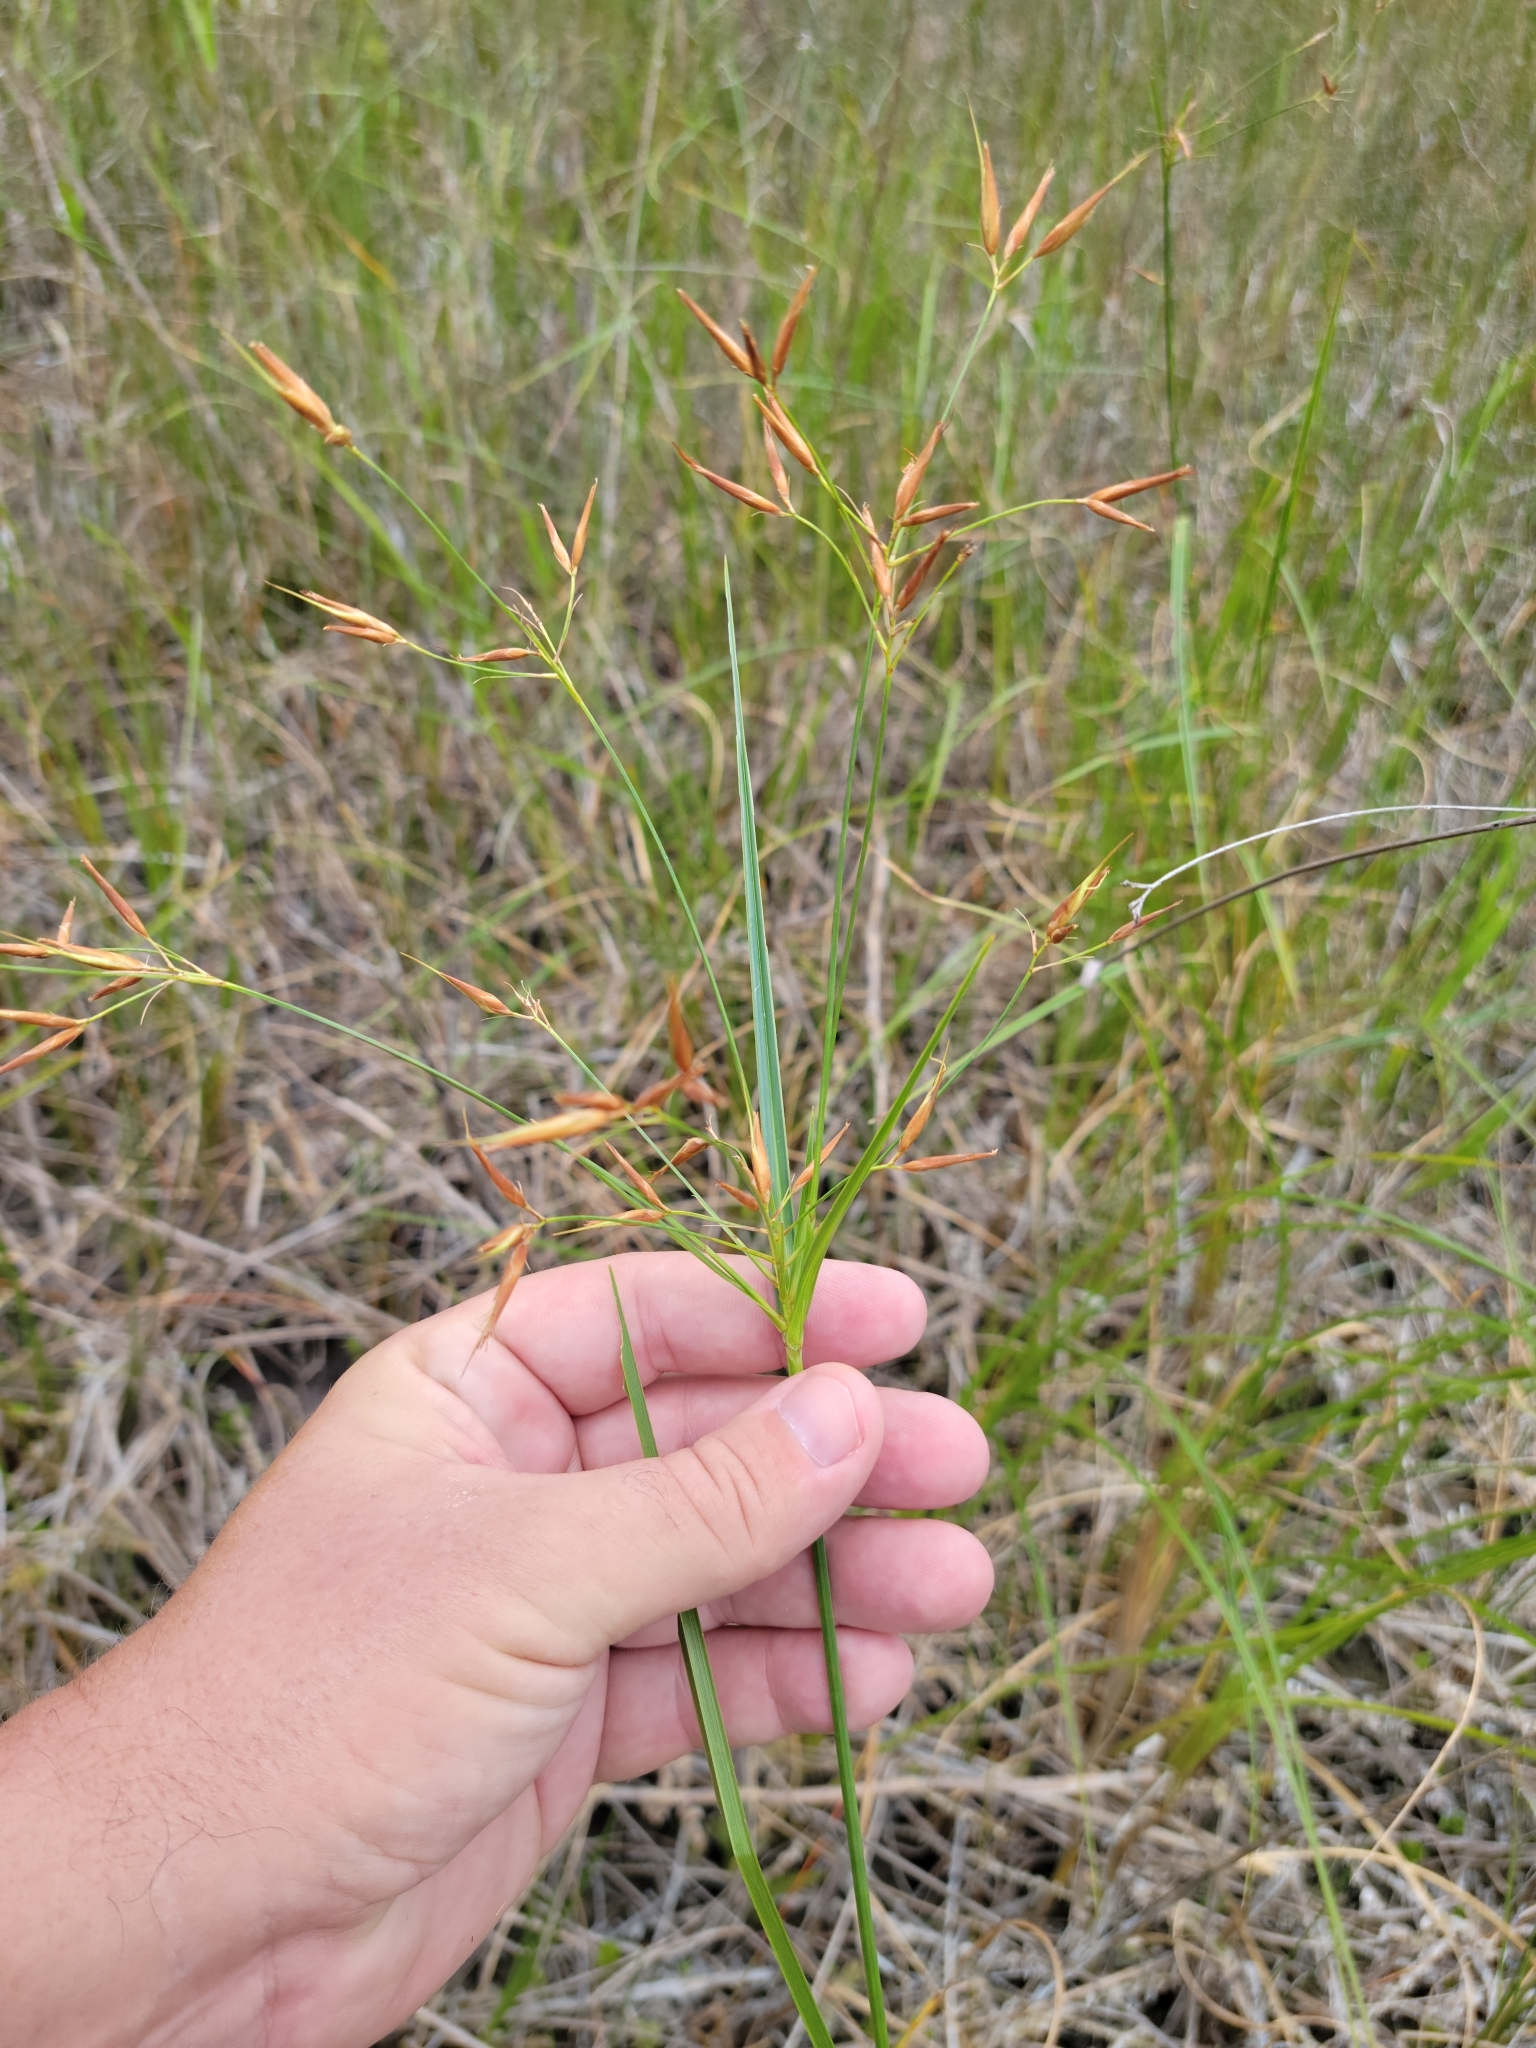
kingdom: Plantae
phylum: Tracheophyta
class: Liliopsida
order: Poales
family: Cyperaceae
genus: Rhynchospora
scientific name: Rhynchospora inundata
